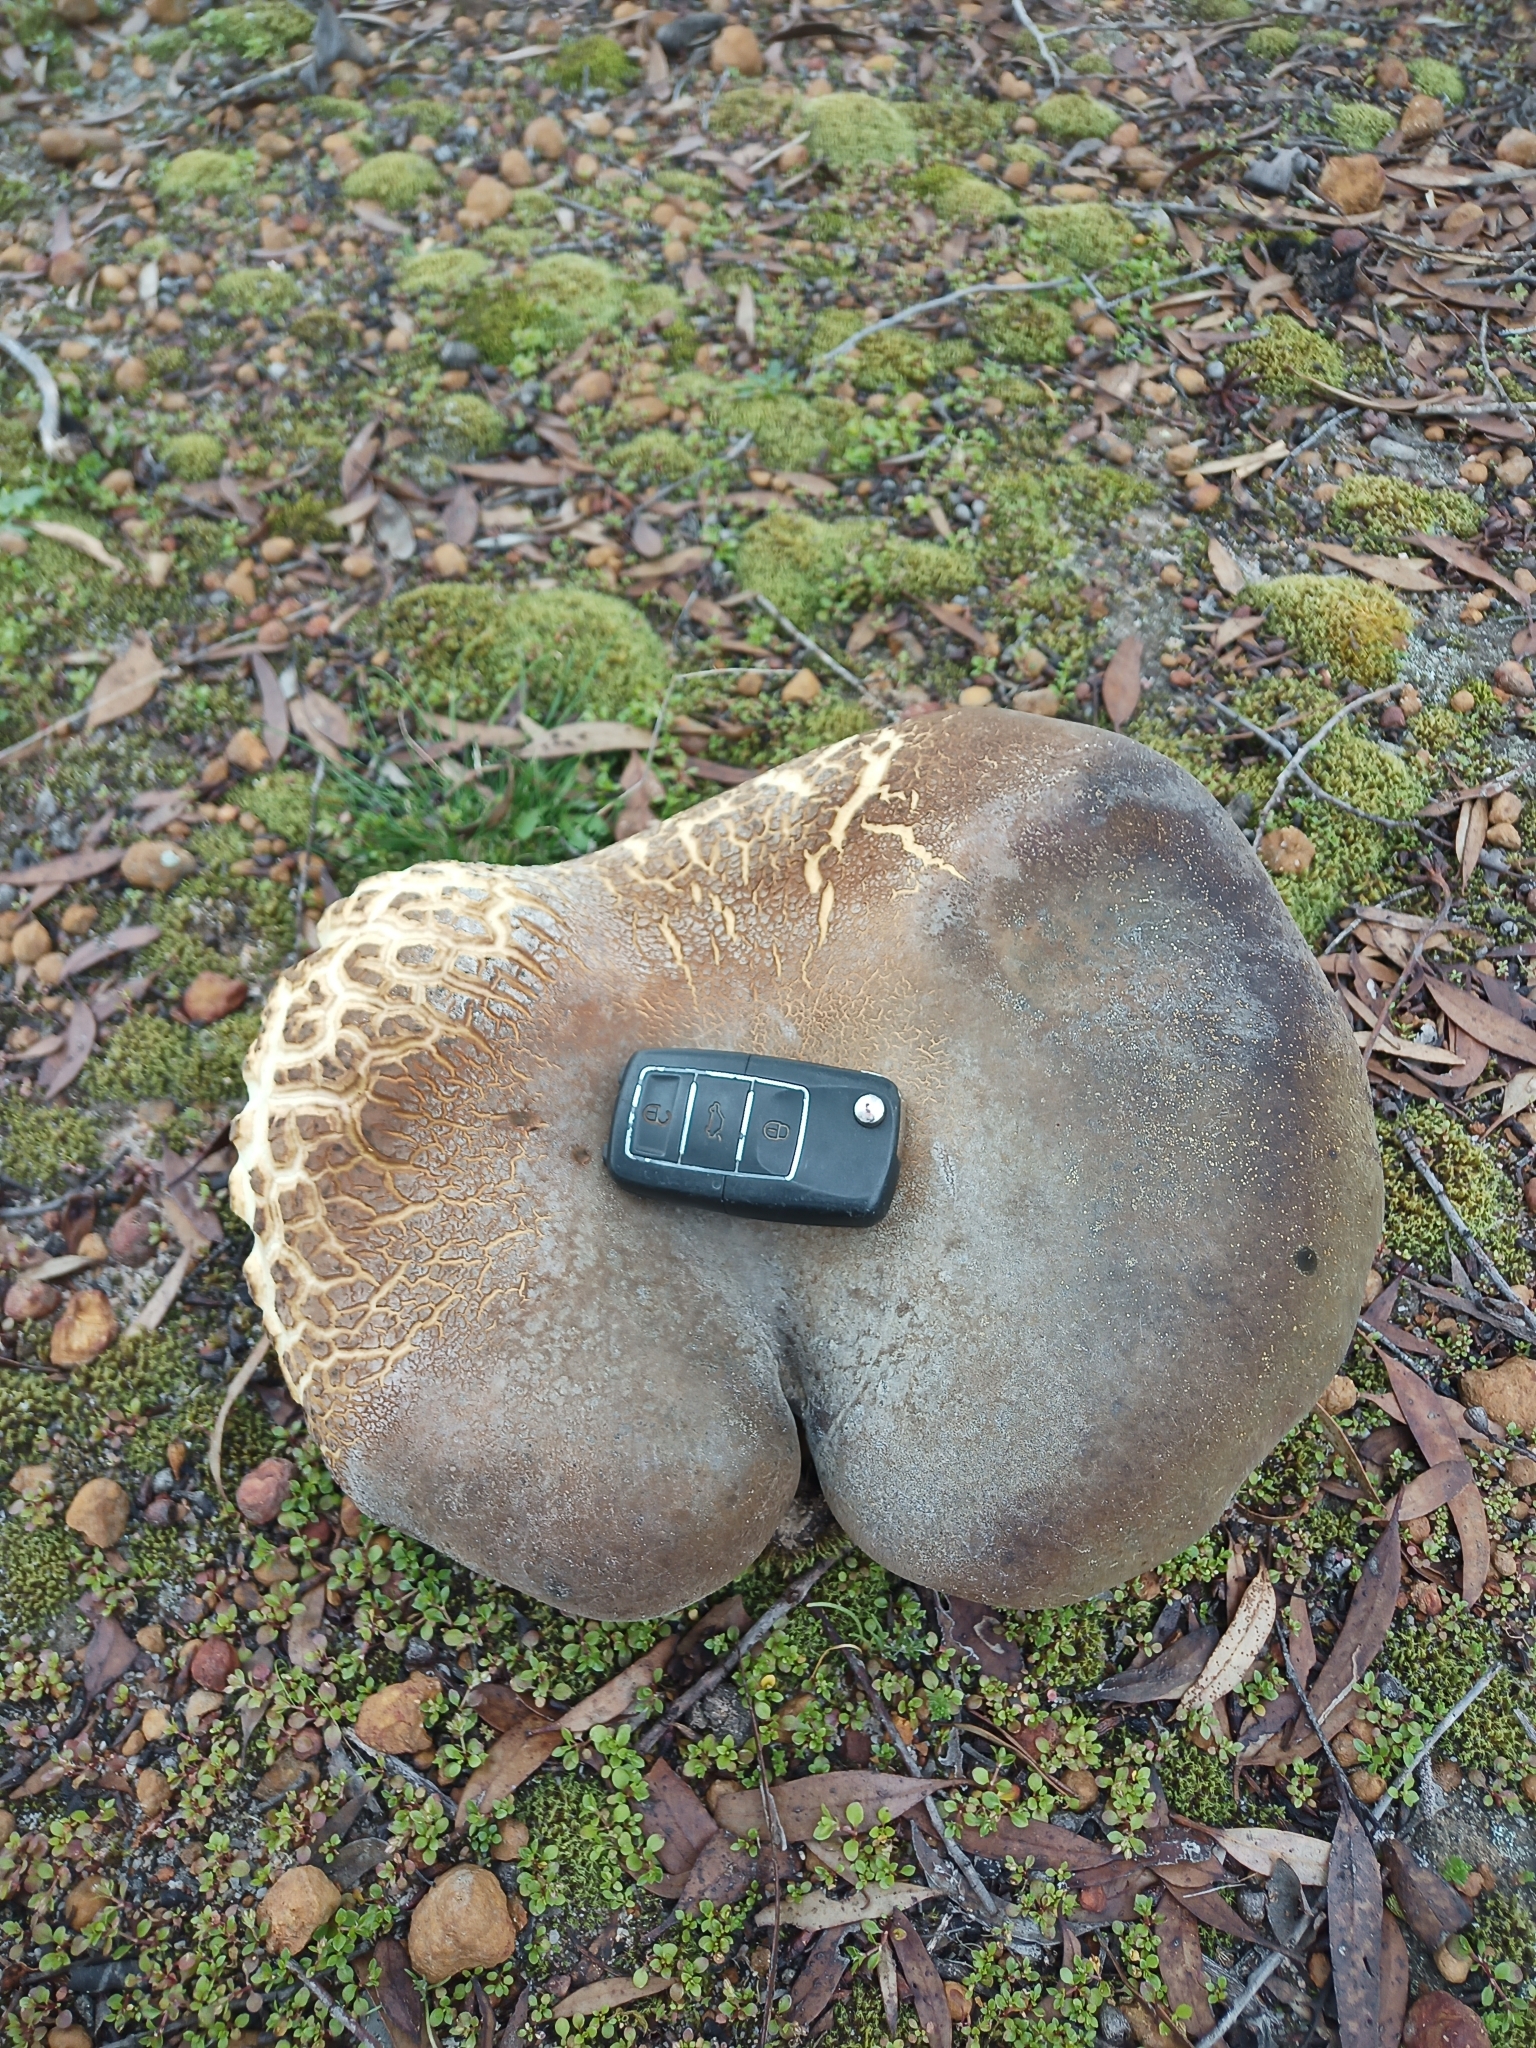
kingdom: Fungi
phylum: Basidiomycota
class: Agaricomycetes
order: Boletales
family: Boletinellaceae
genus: Phlebopus
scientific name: Phlebopus marginatus
